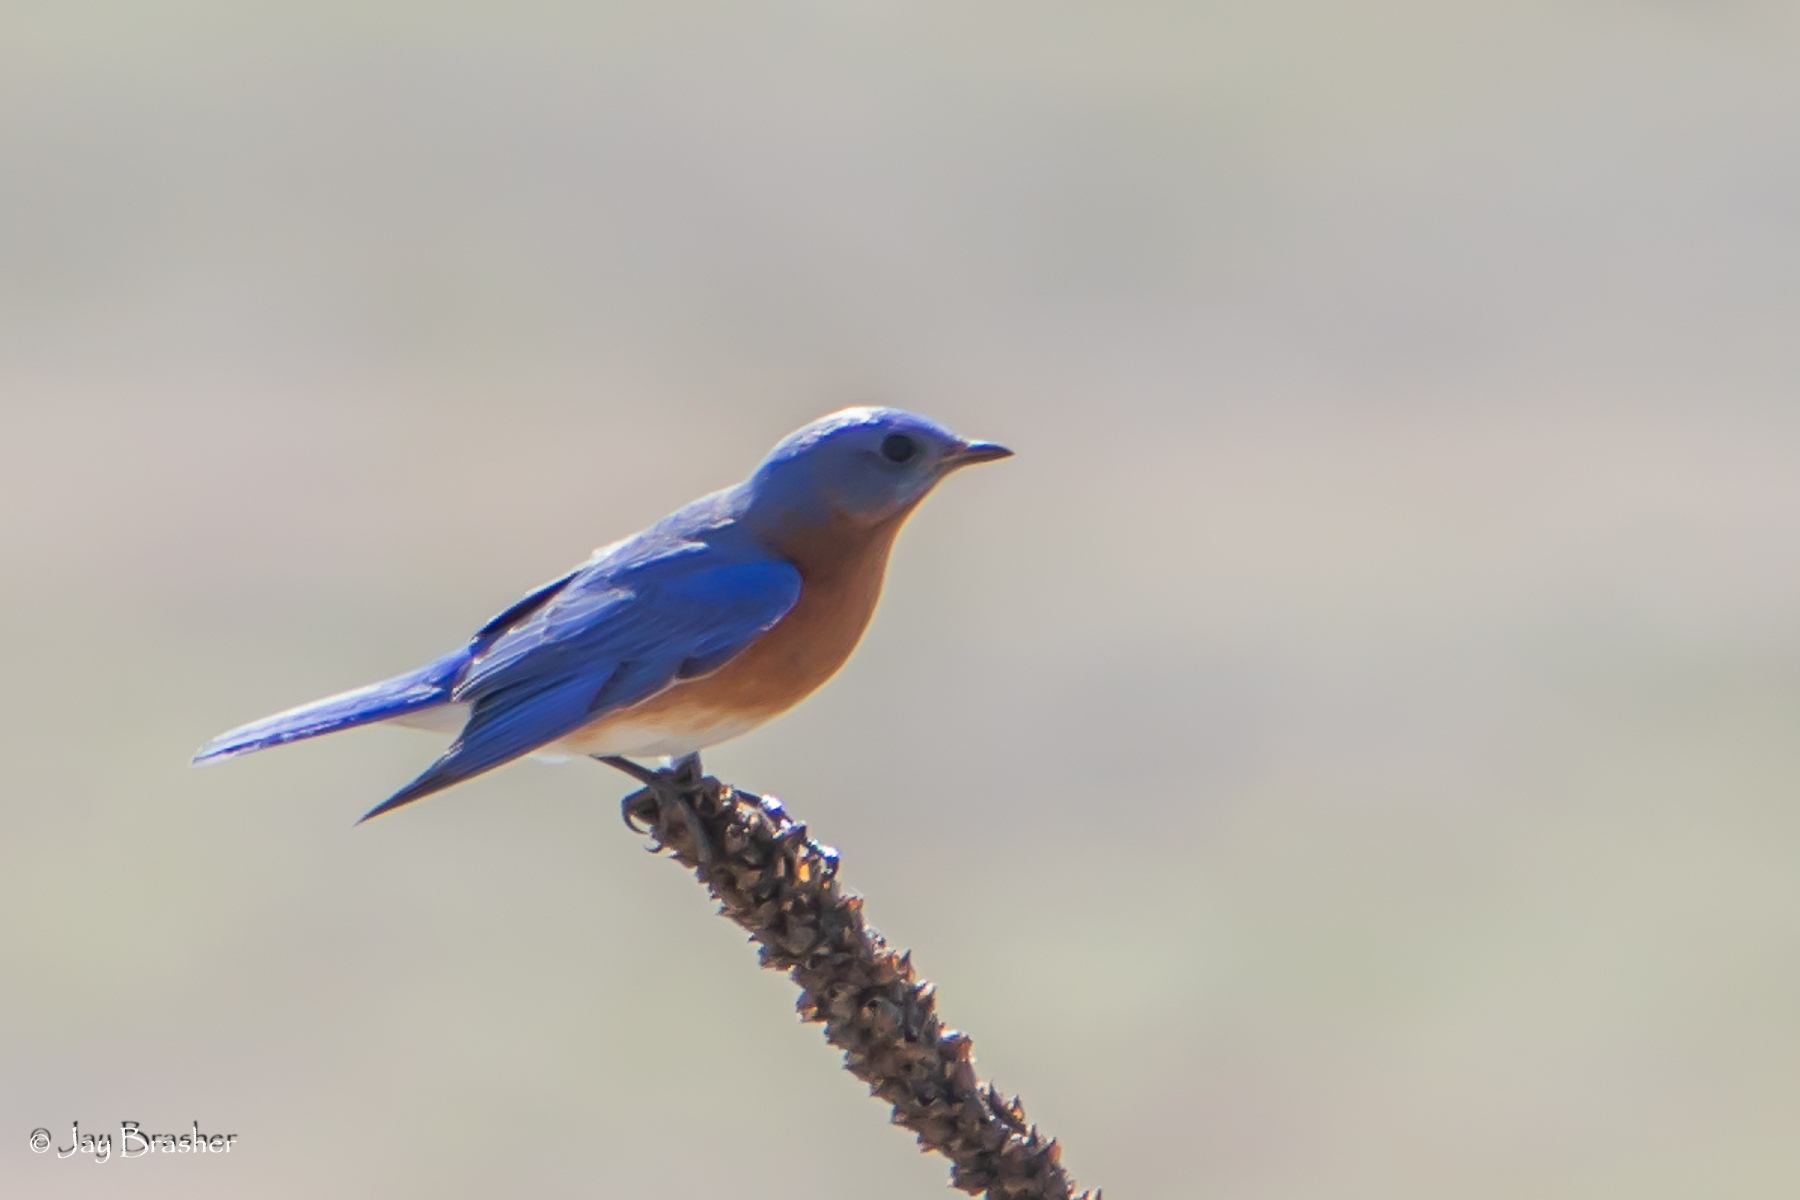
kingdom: Animalia
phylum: Chordata
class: Aves
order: Passeriformes
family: Turdidae
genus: Sialia
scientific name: Sialia sialis
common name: Eastern bluebird
